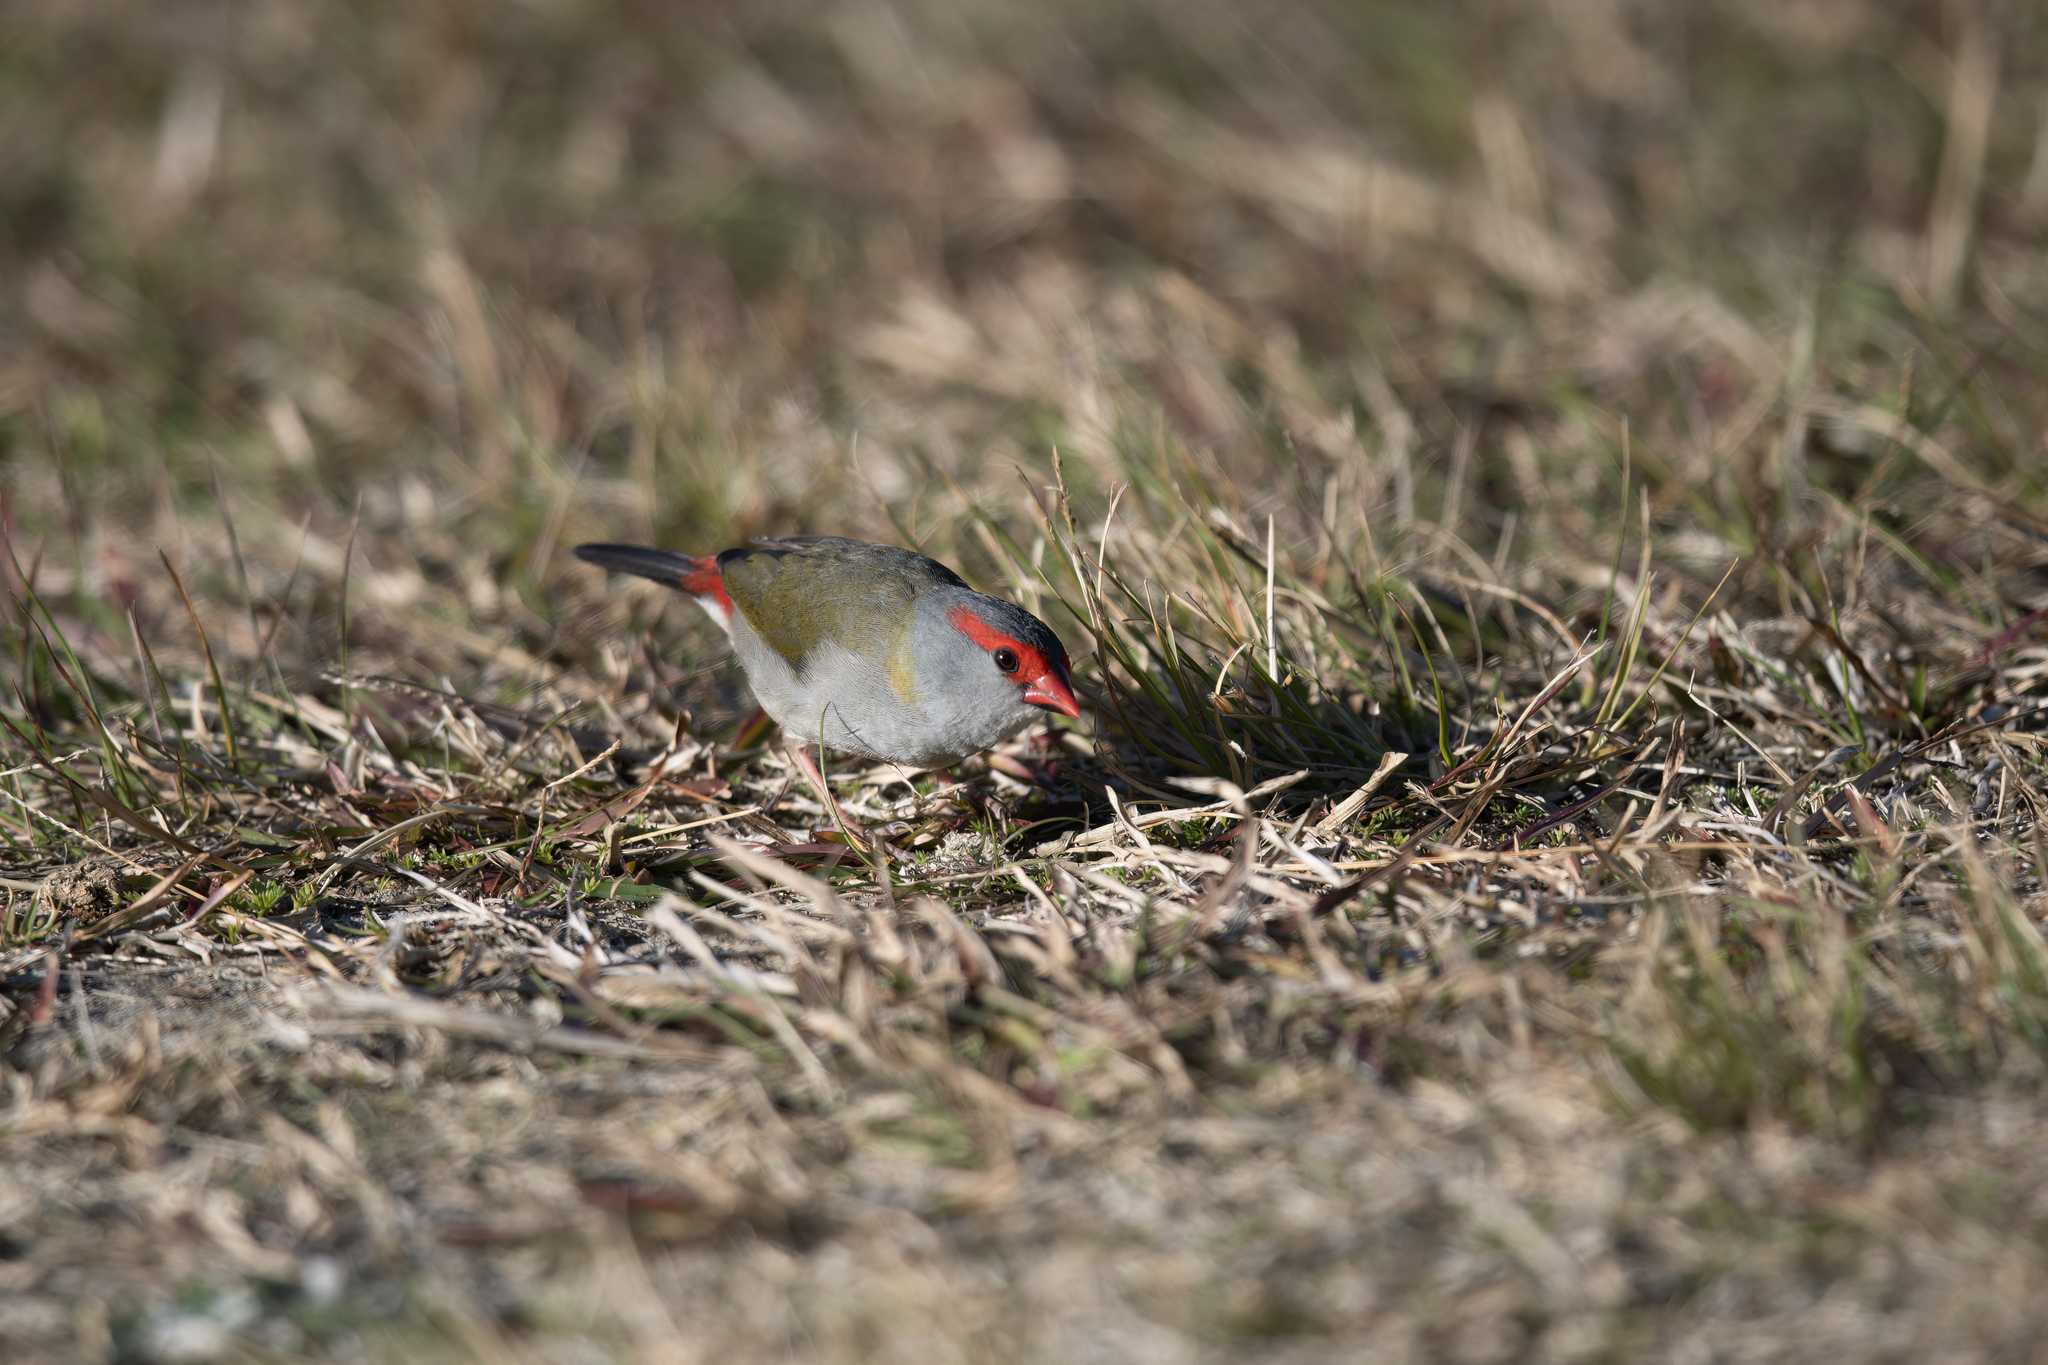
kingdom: Animalia
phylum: Chordata
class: Aves
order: Passeriformes
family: Estrildidae
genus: Neochmia
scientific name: Neochmia temporalis
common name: Red-browed finch
